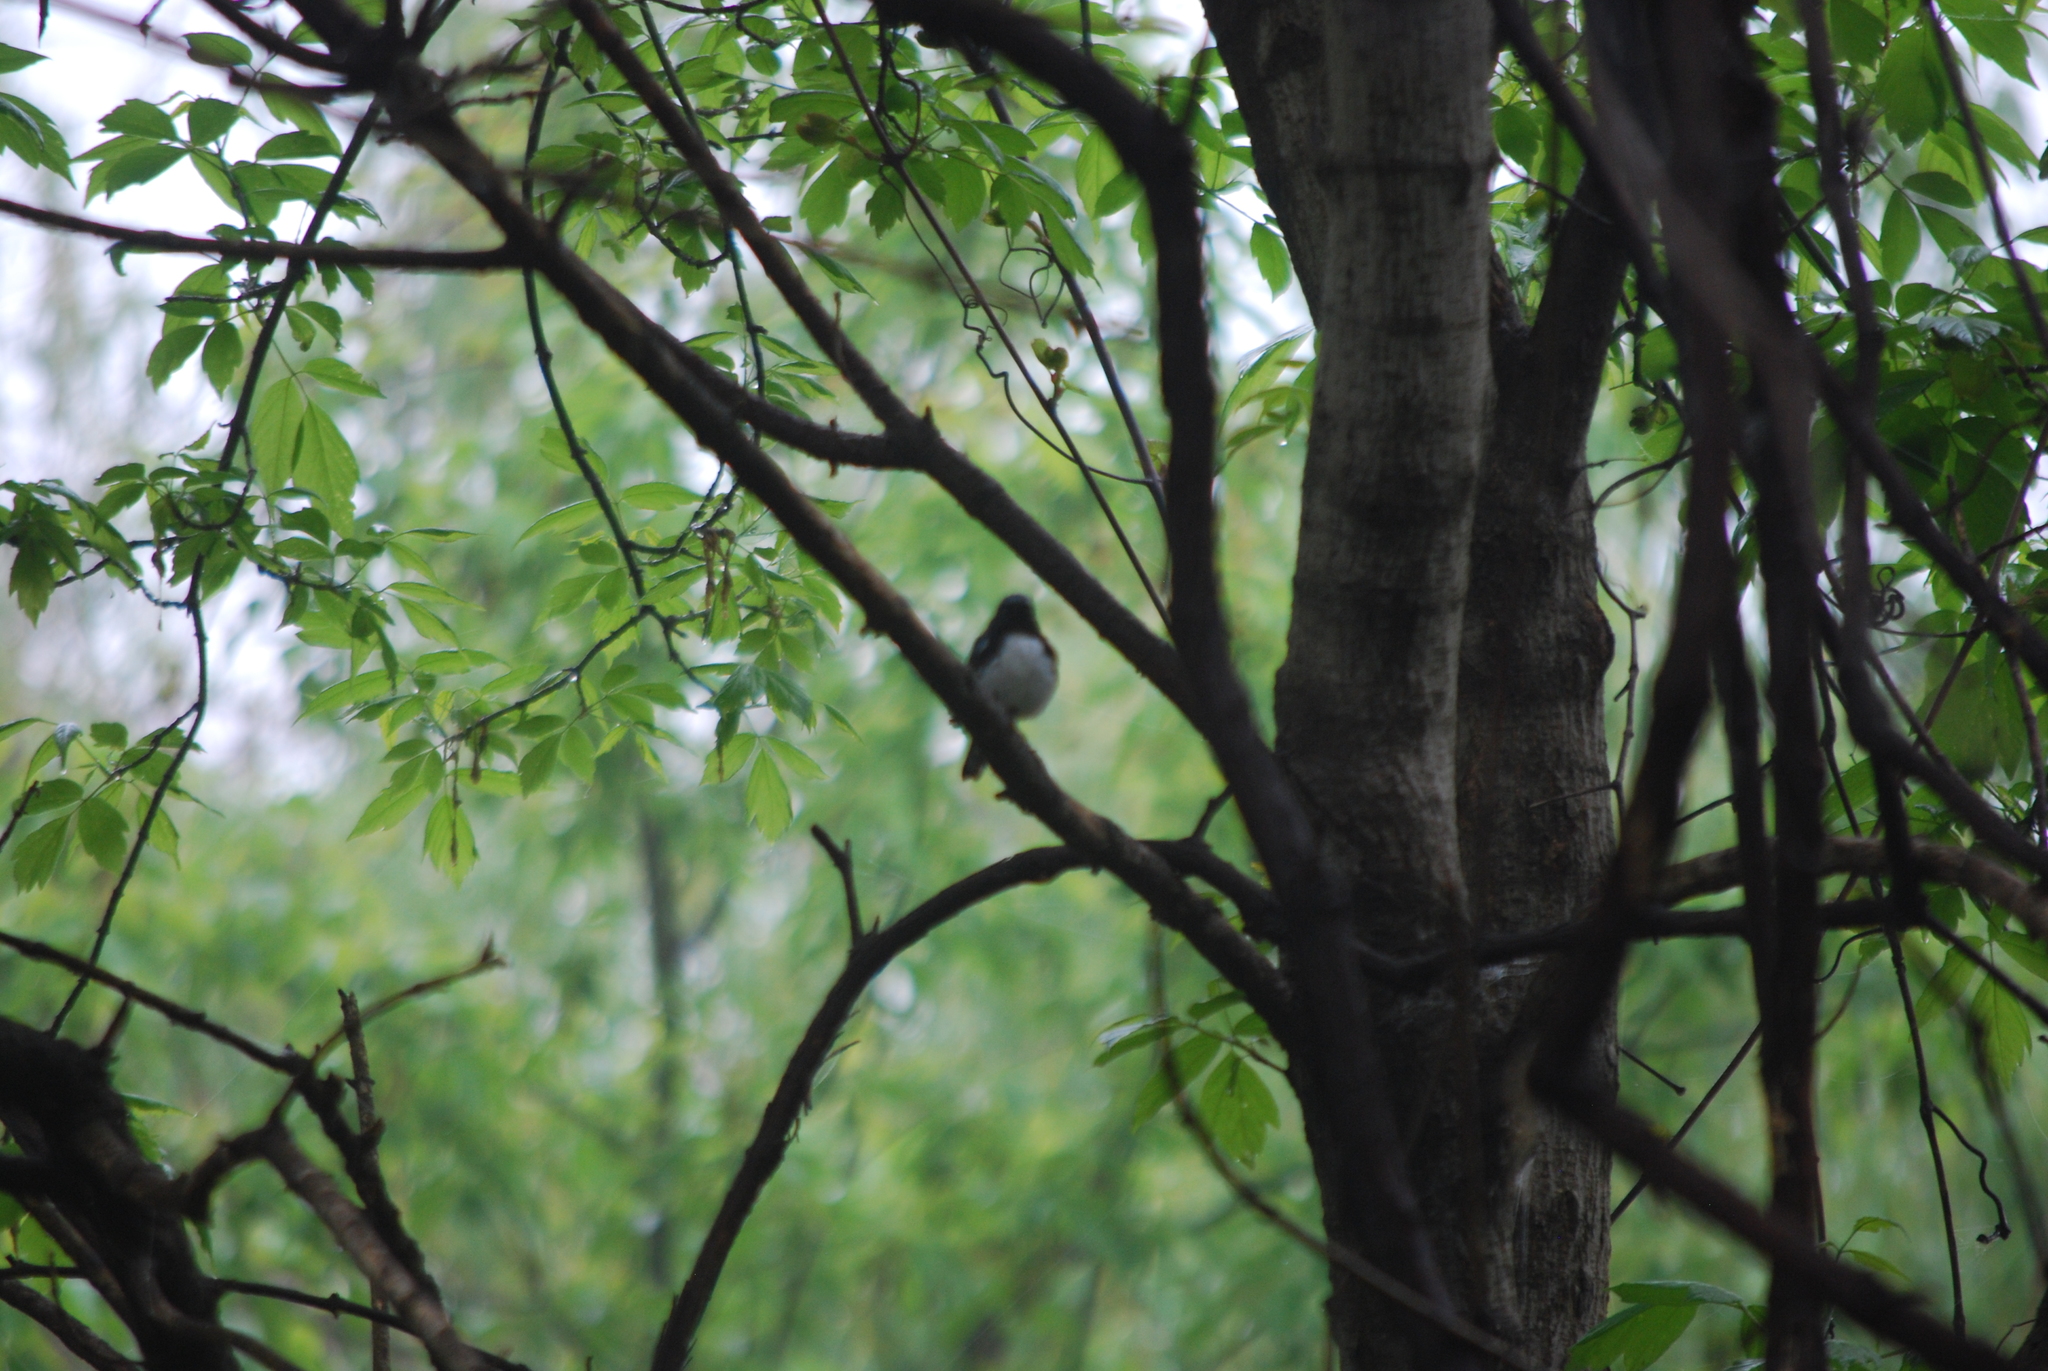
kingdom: Animalia
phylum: Chordata
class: Aves
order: Passeriformes
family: Parulidae
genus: Setophaga
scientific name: Setophaga caerulescens
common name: Black-throated blue warbler
